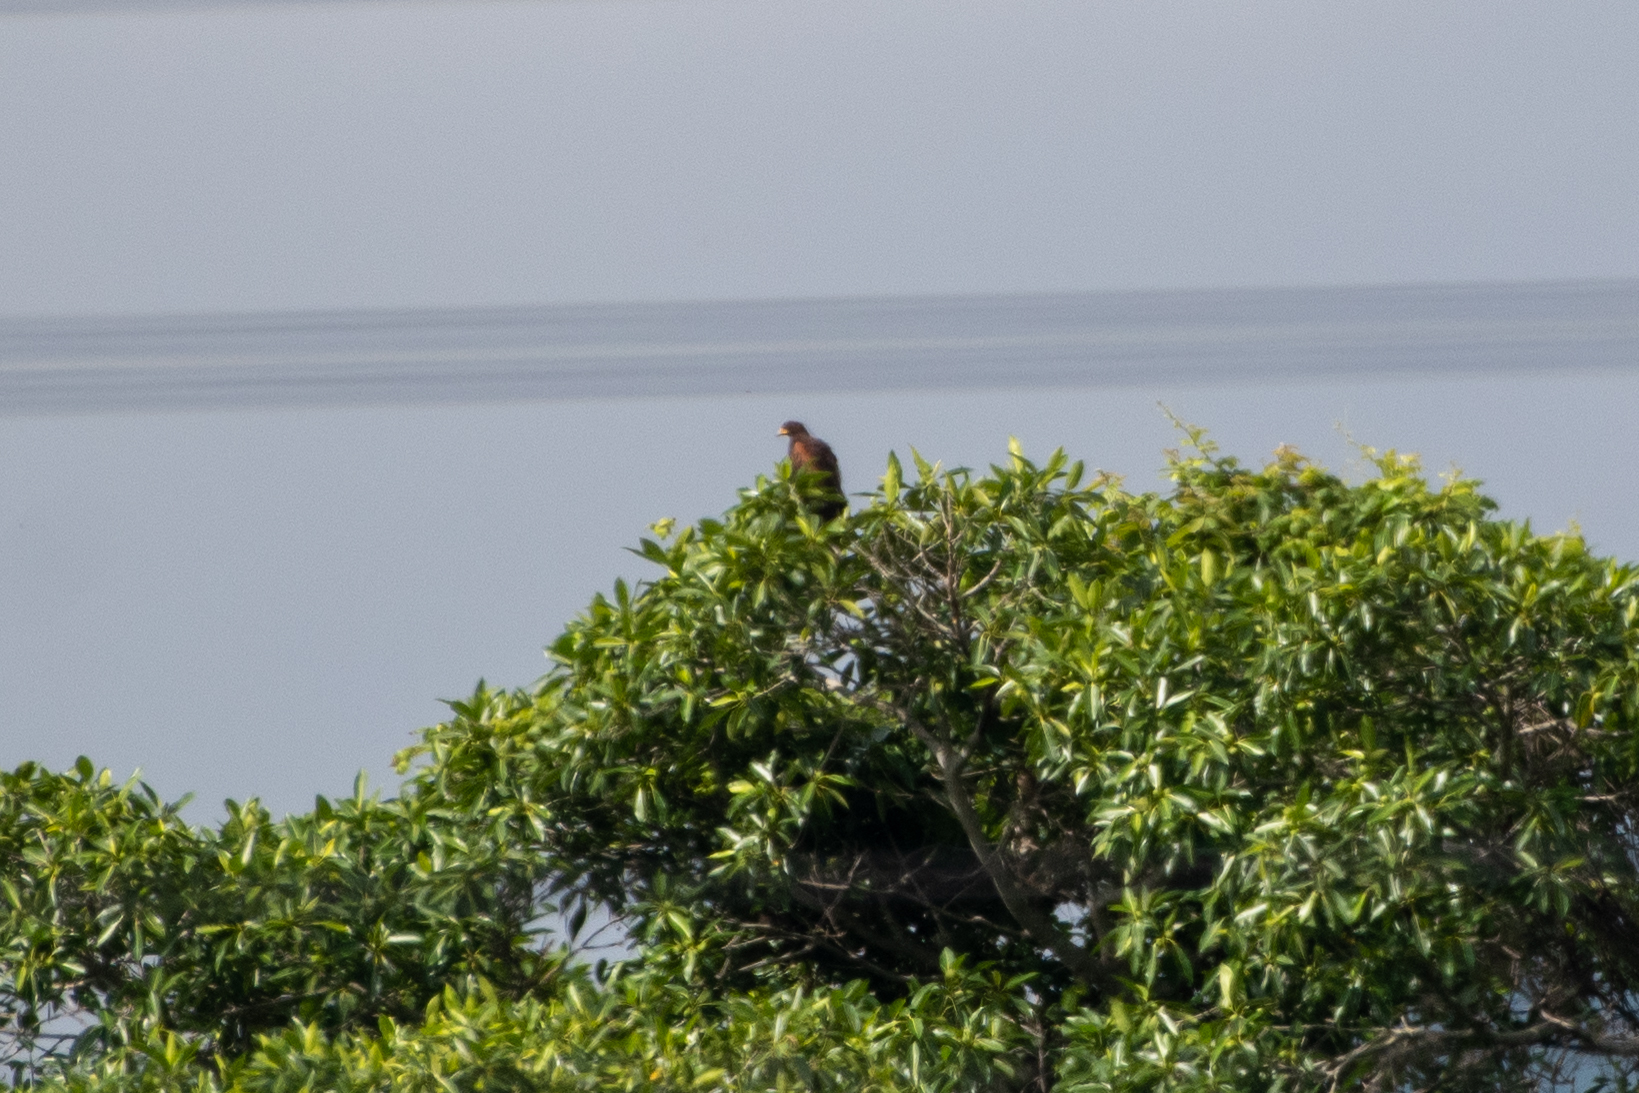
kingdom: Animalia
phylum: Chordata
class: Aves
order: Accipitriformes
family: Accipitridae
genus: Parabuteo
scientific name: Parabuteo unicinctus
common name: Harris's hawk
